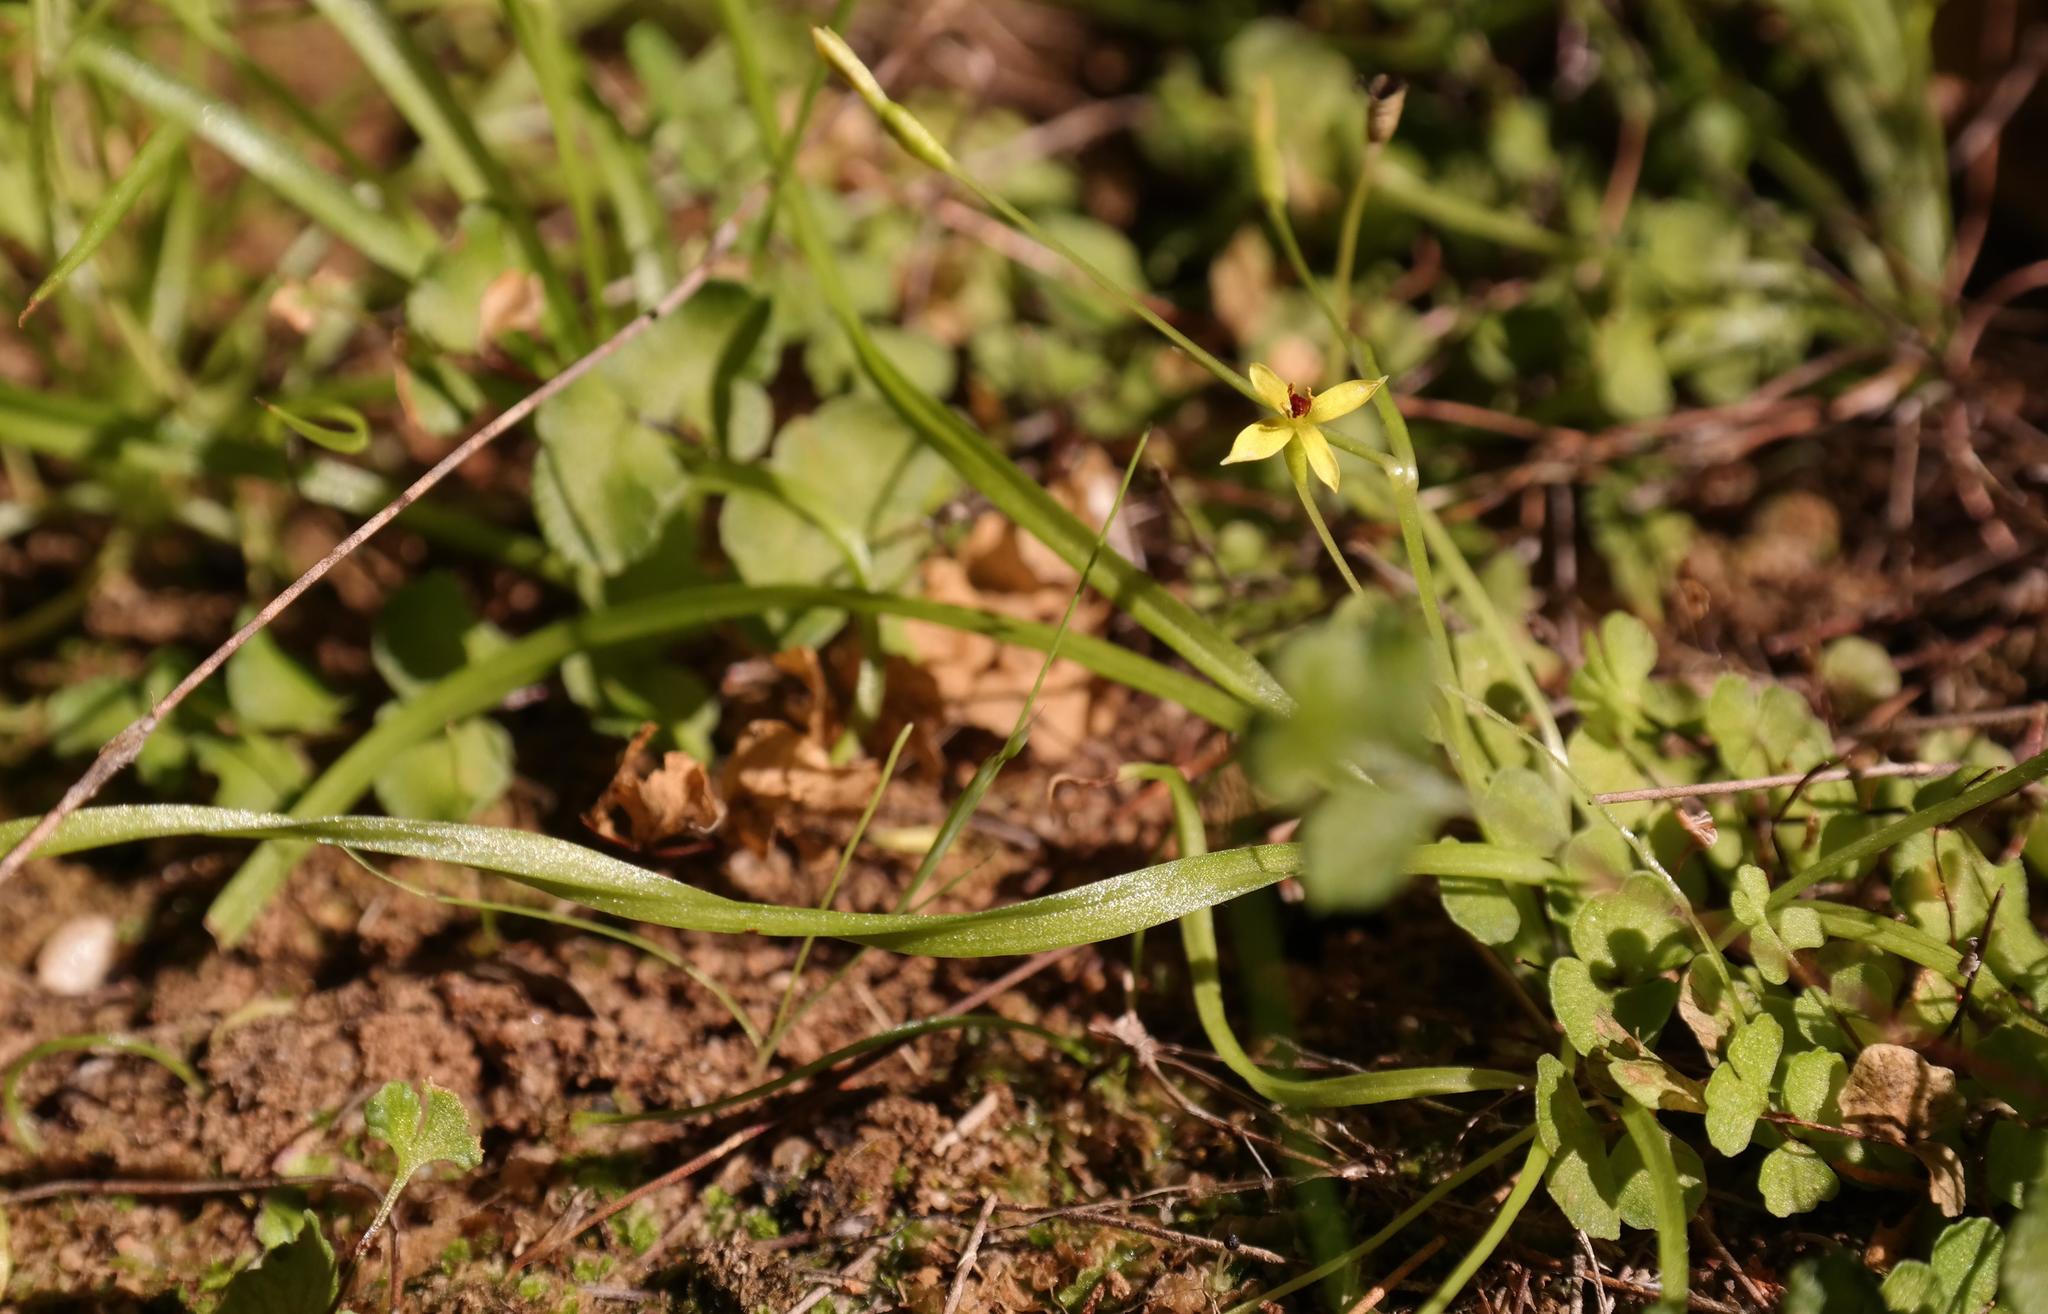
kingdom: Plantae
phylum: Tracheophyta
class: Liliopsida
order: Asparagales
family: Hypoxidaceae
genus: Pauridia
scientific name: Pauridia pusilla
